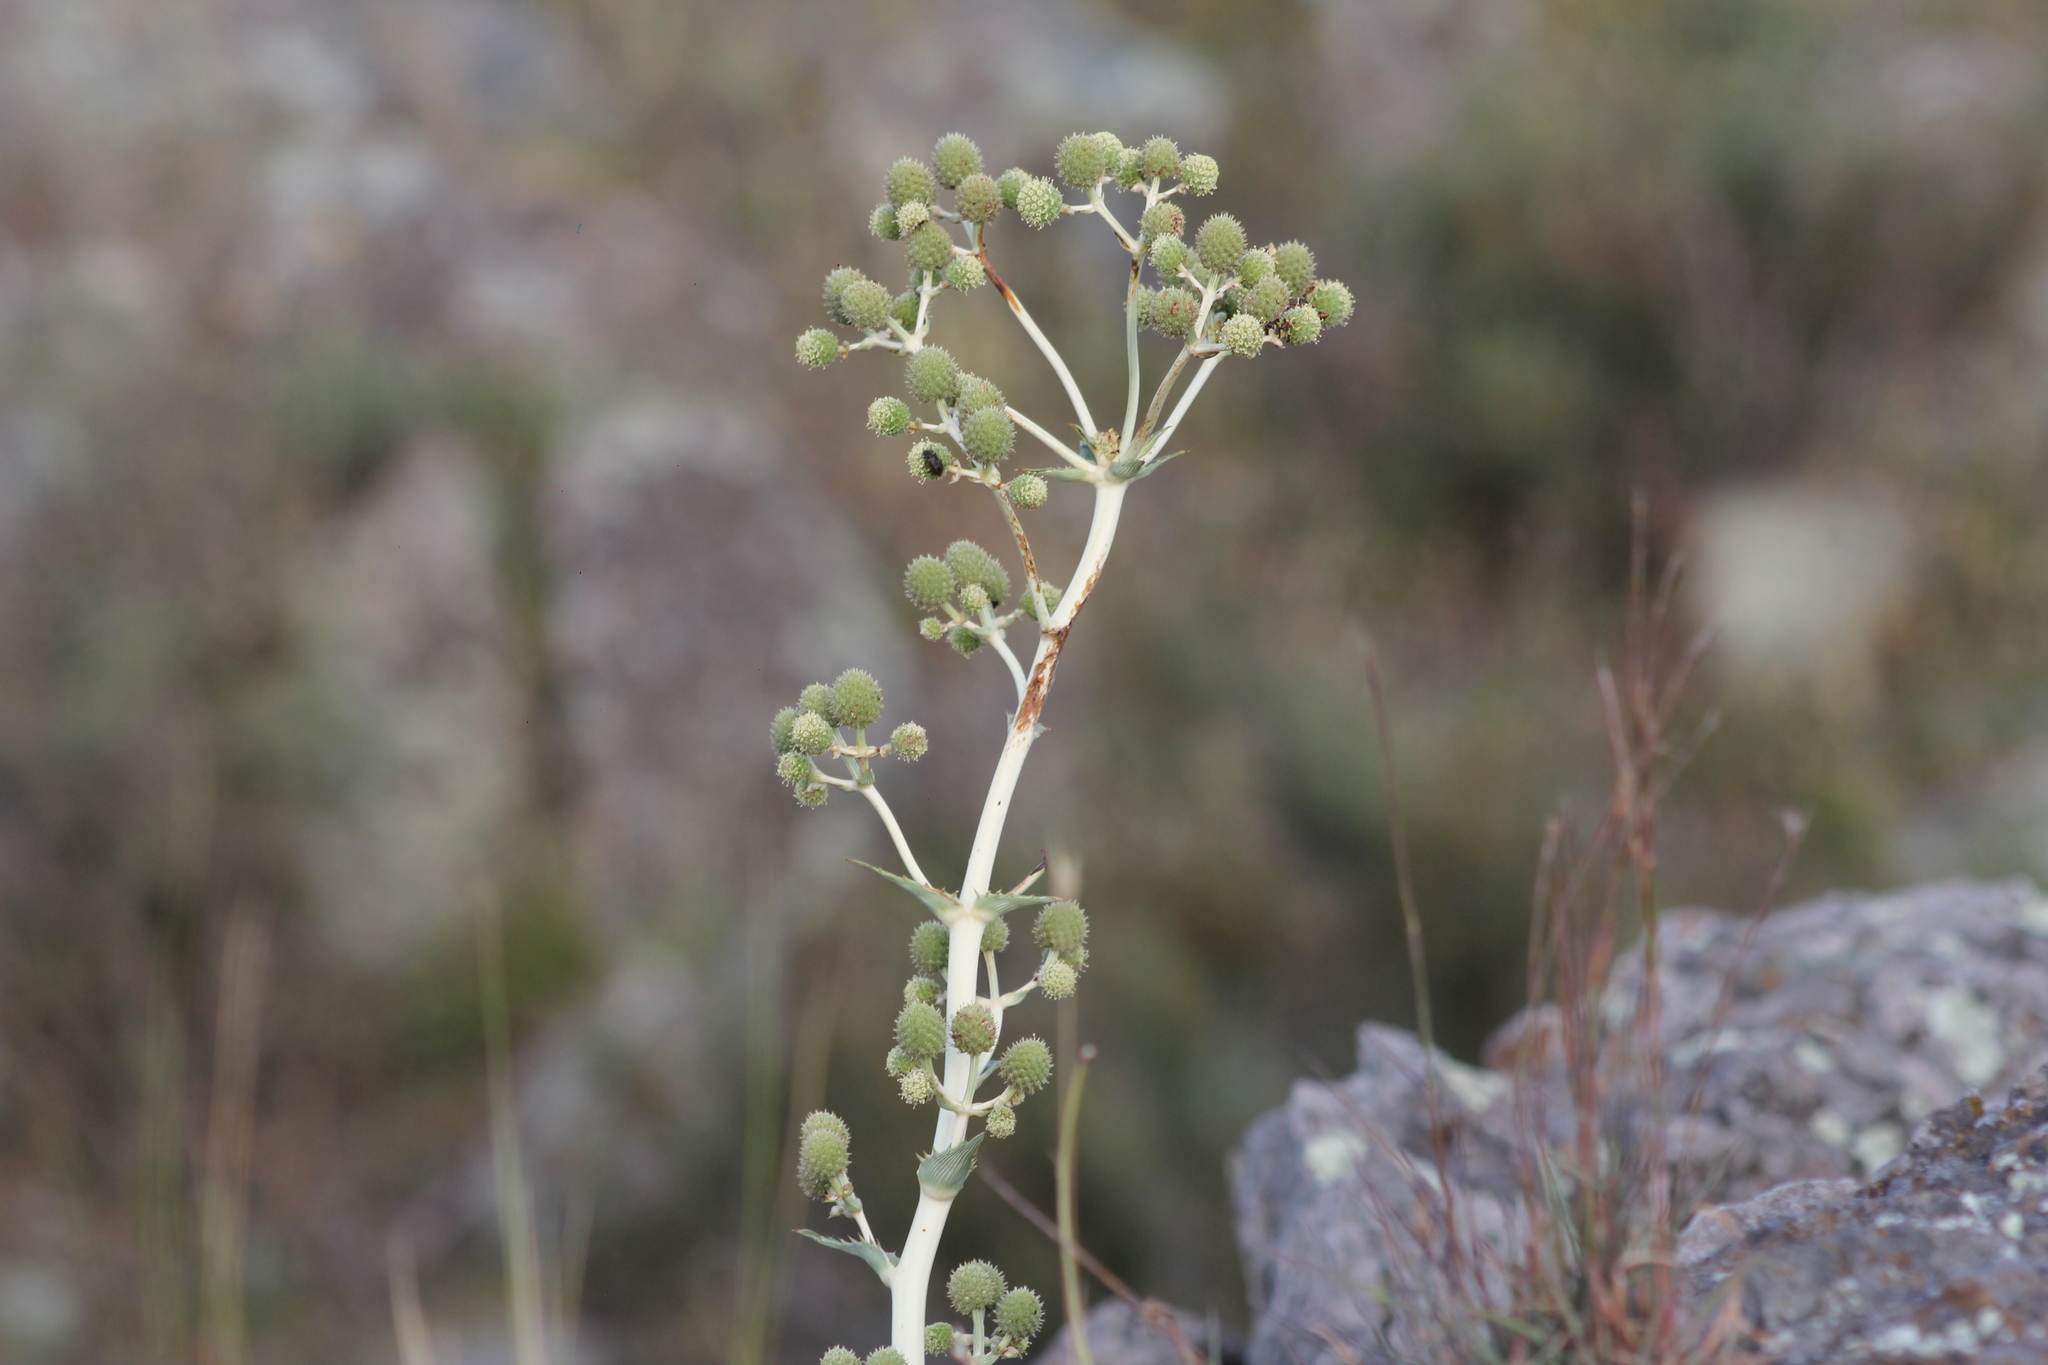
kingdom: Plantae
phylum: Tracheophyta
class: Magnoliopsida
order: Apiales
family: Apiaceae
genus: Eryngium
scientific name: Eryngium humboldtii
